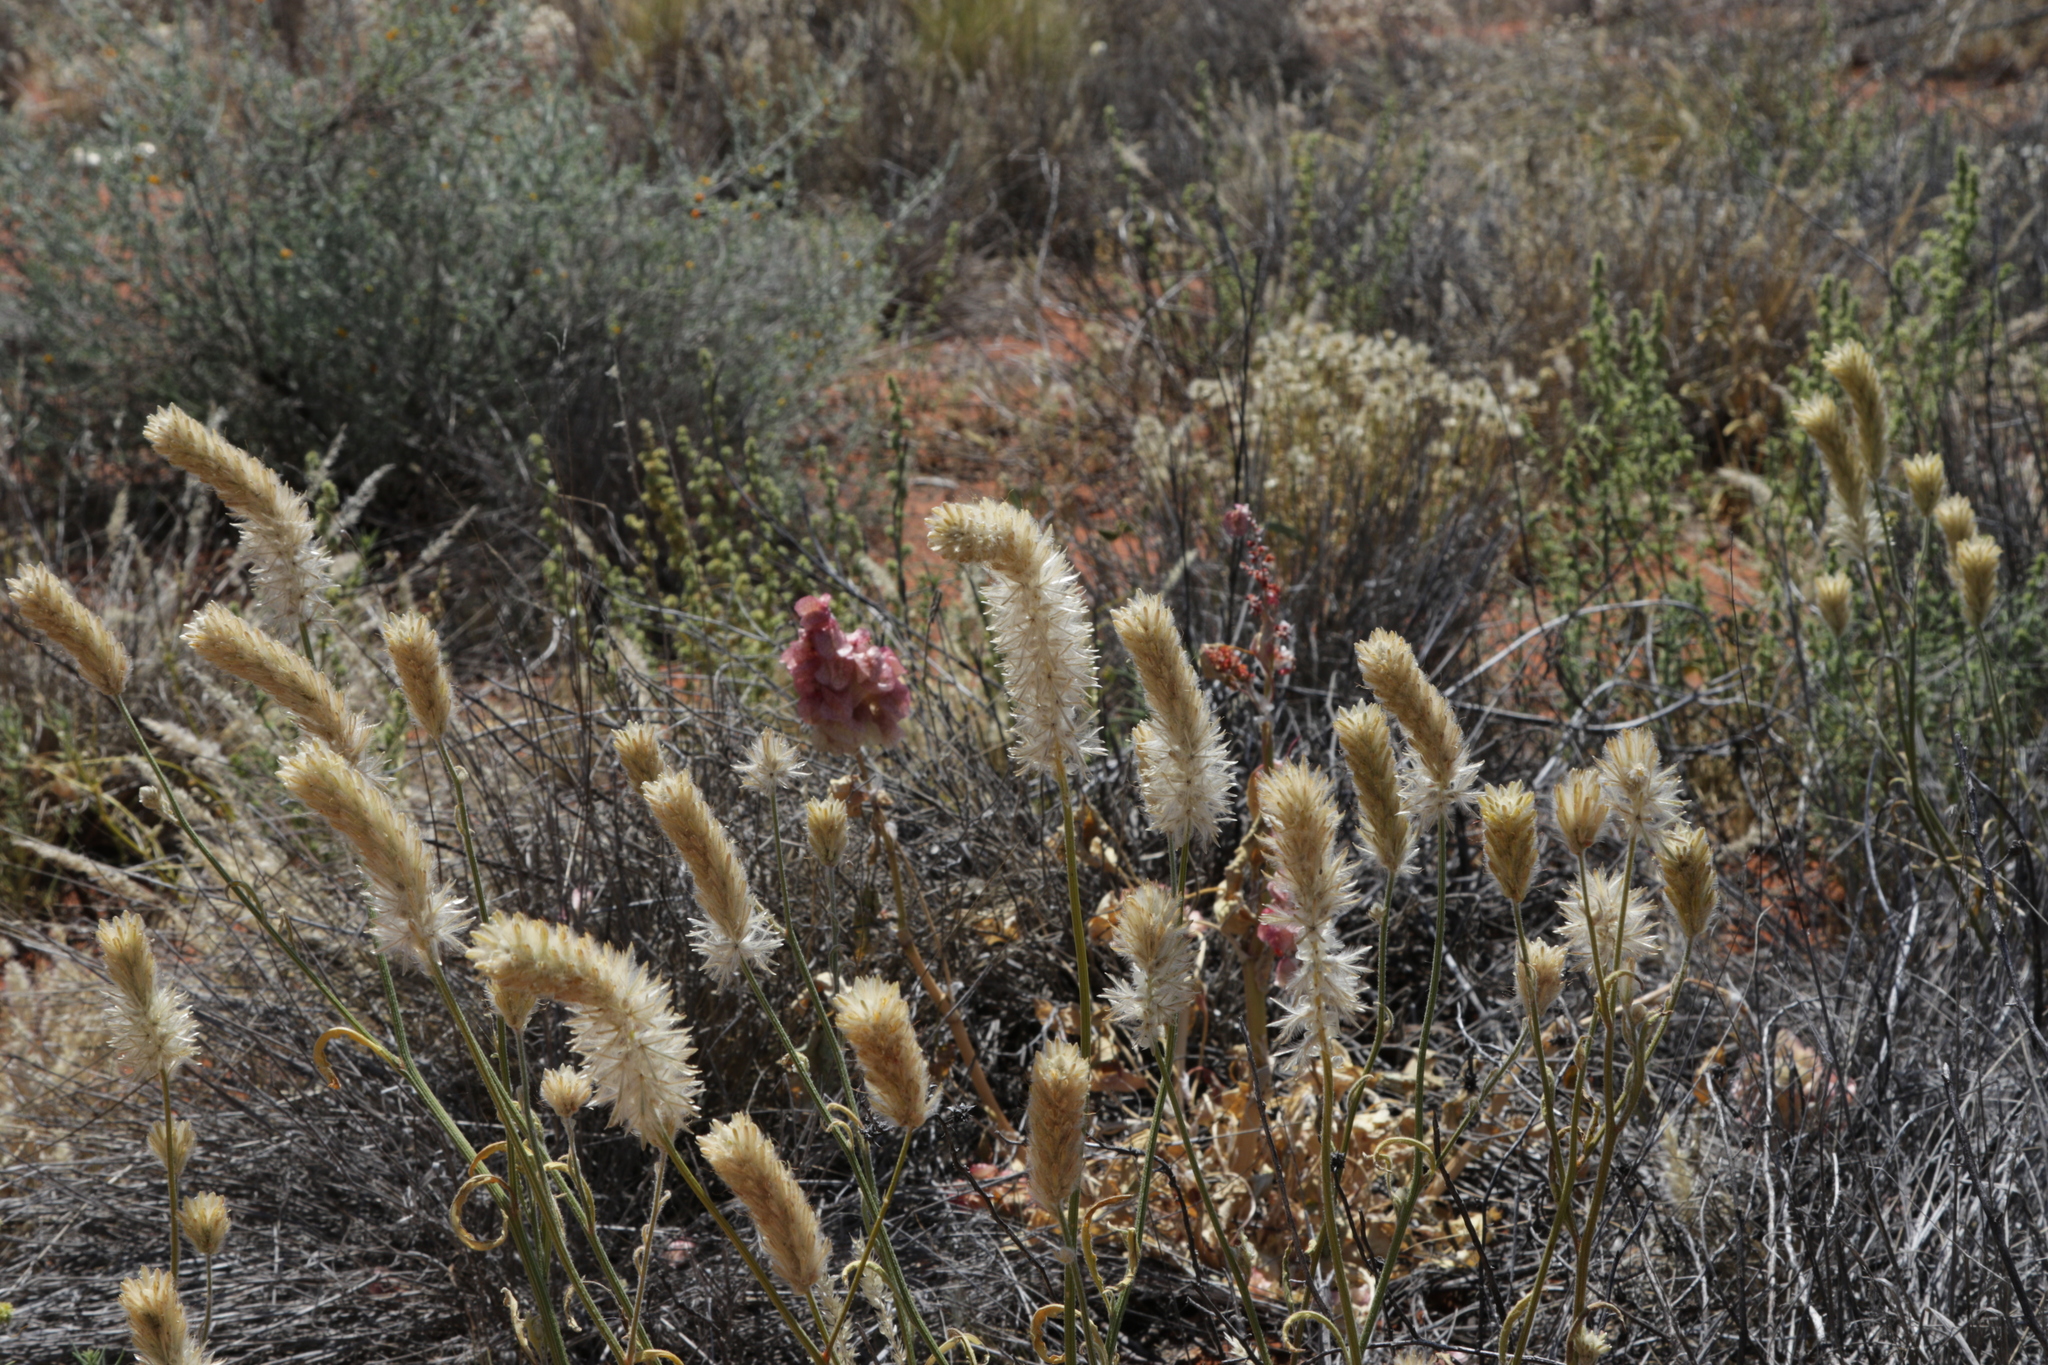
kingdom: Plantae
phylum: Tracheophyta
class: Magnoliopsida
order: Caryophyllales
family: Amaranthaceae
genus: Ptilotus
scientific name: Ptilotus polystachyus
